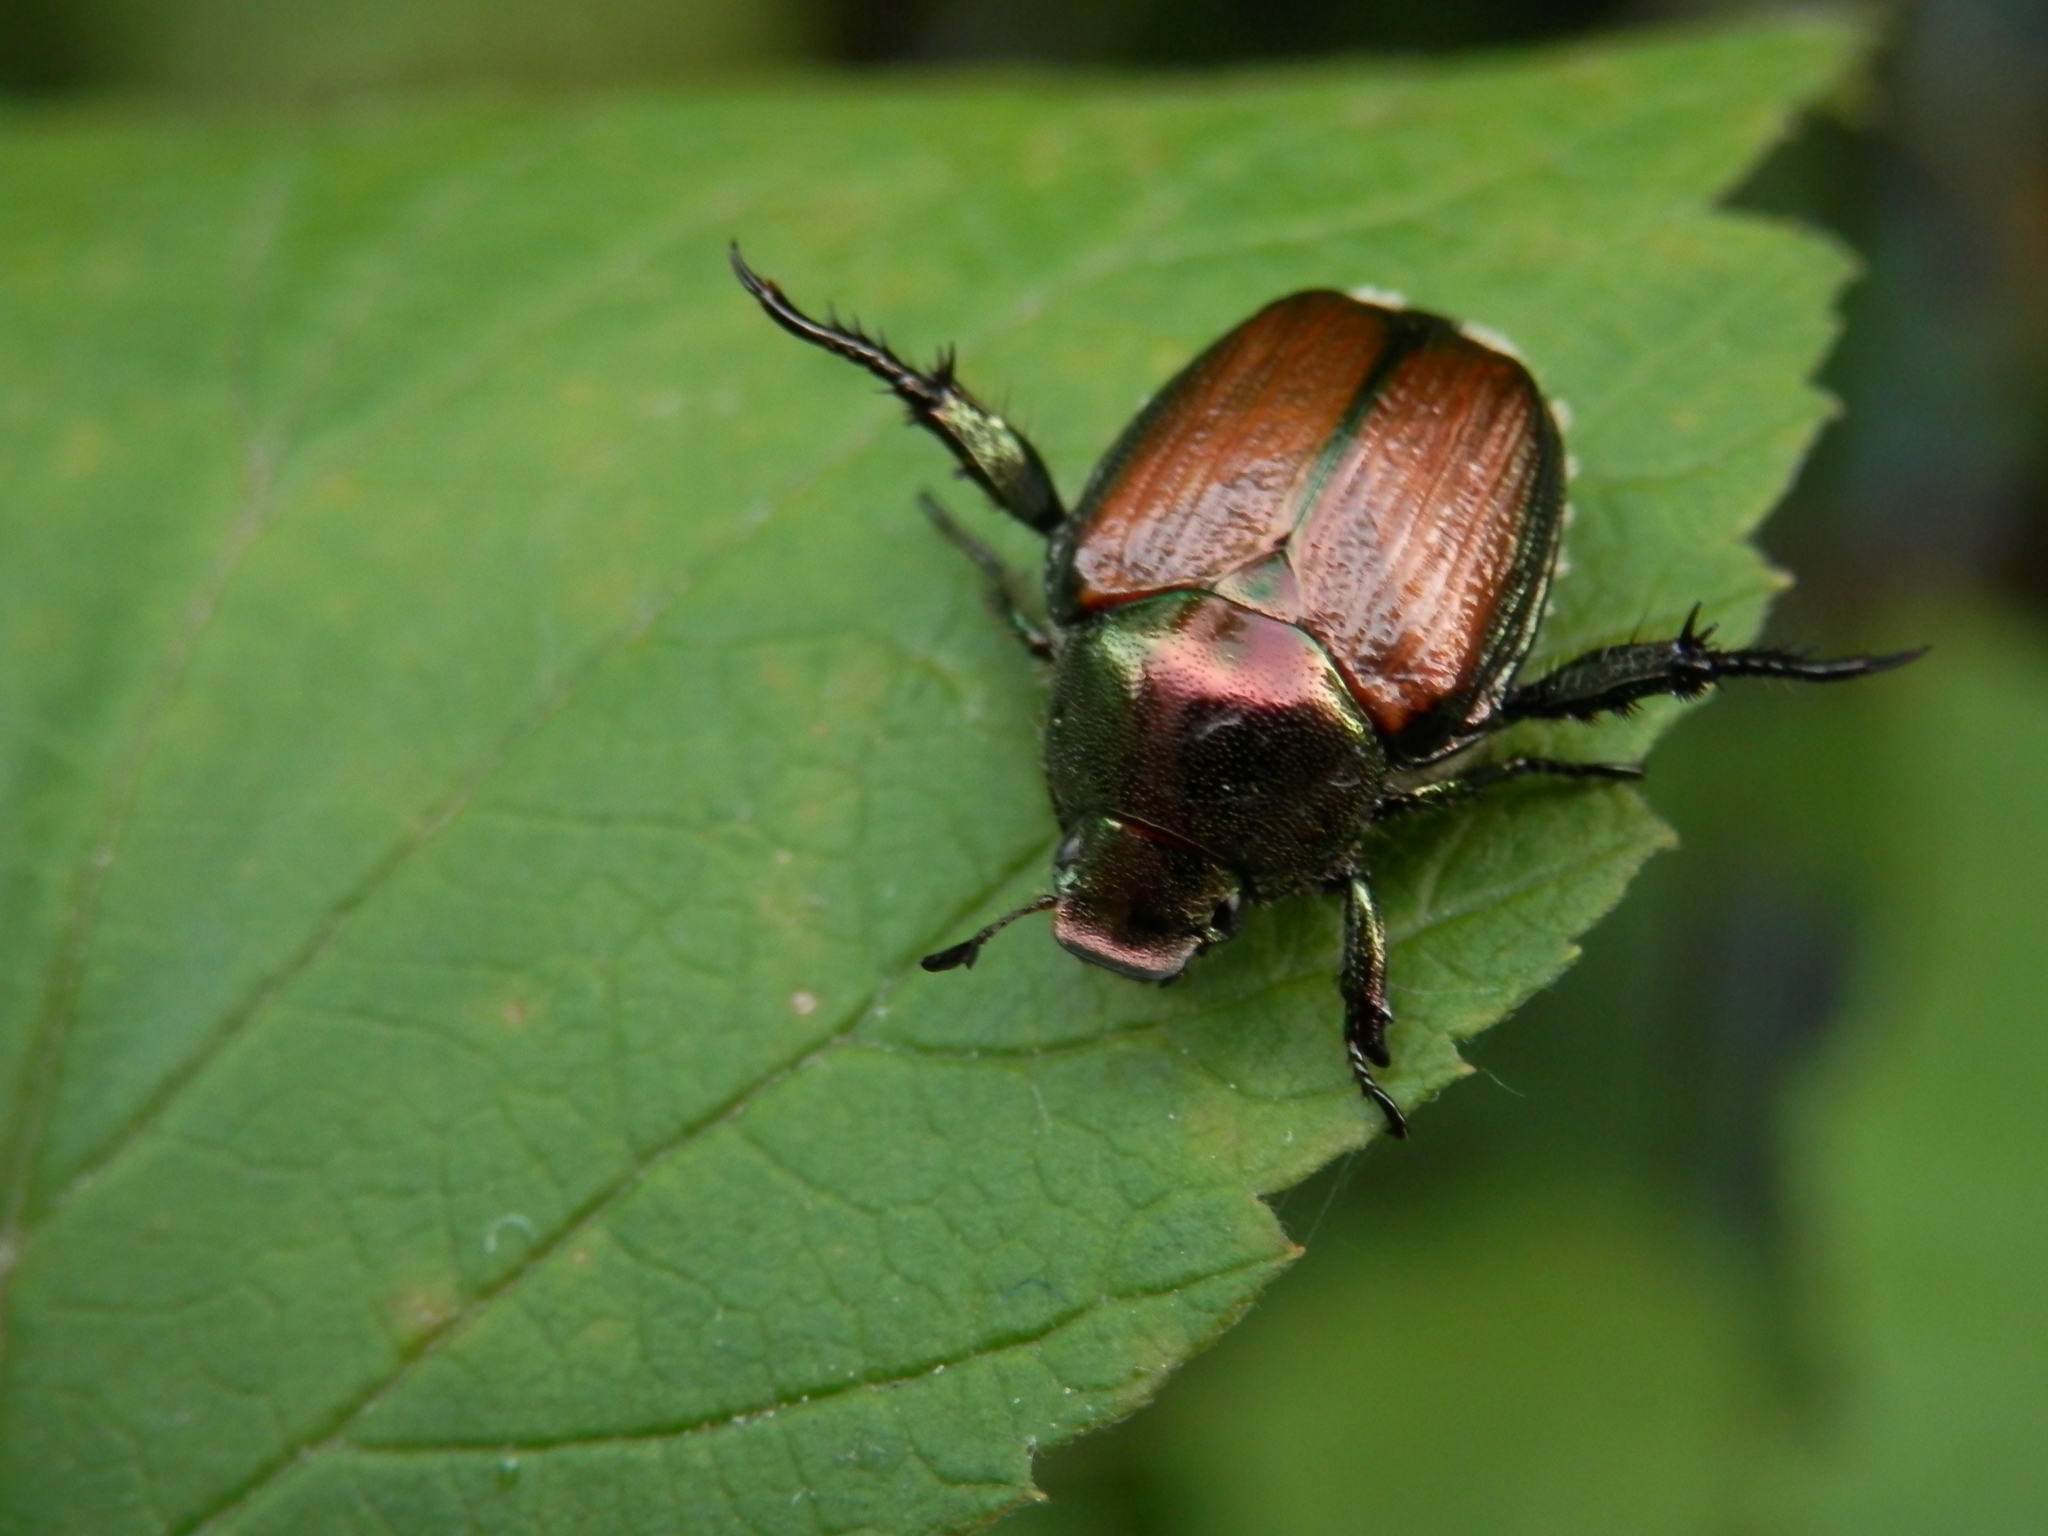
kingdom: Animalia
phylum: Arthropoda
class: Insecta
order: Coleoptera
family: Scarabaeidae
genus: Popillia
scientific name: Popillia japonica
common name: Japanese beetle
